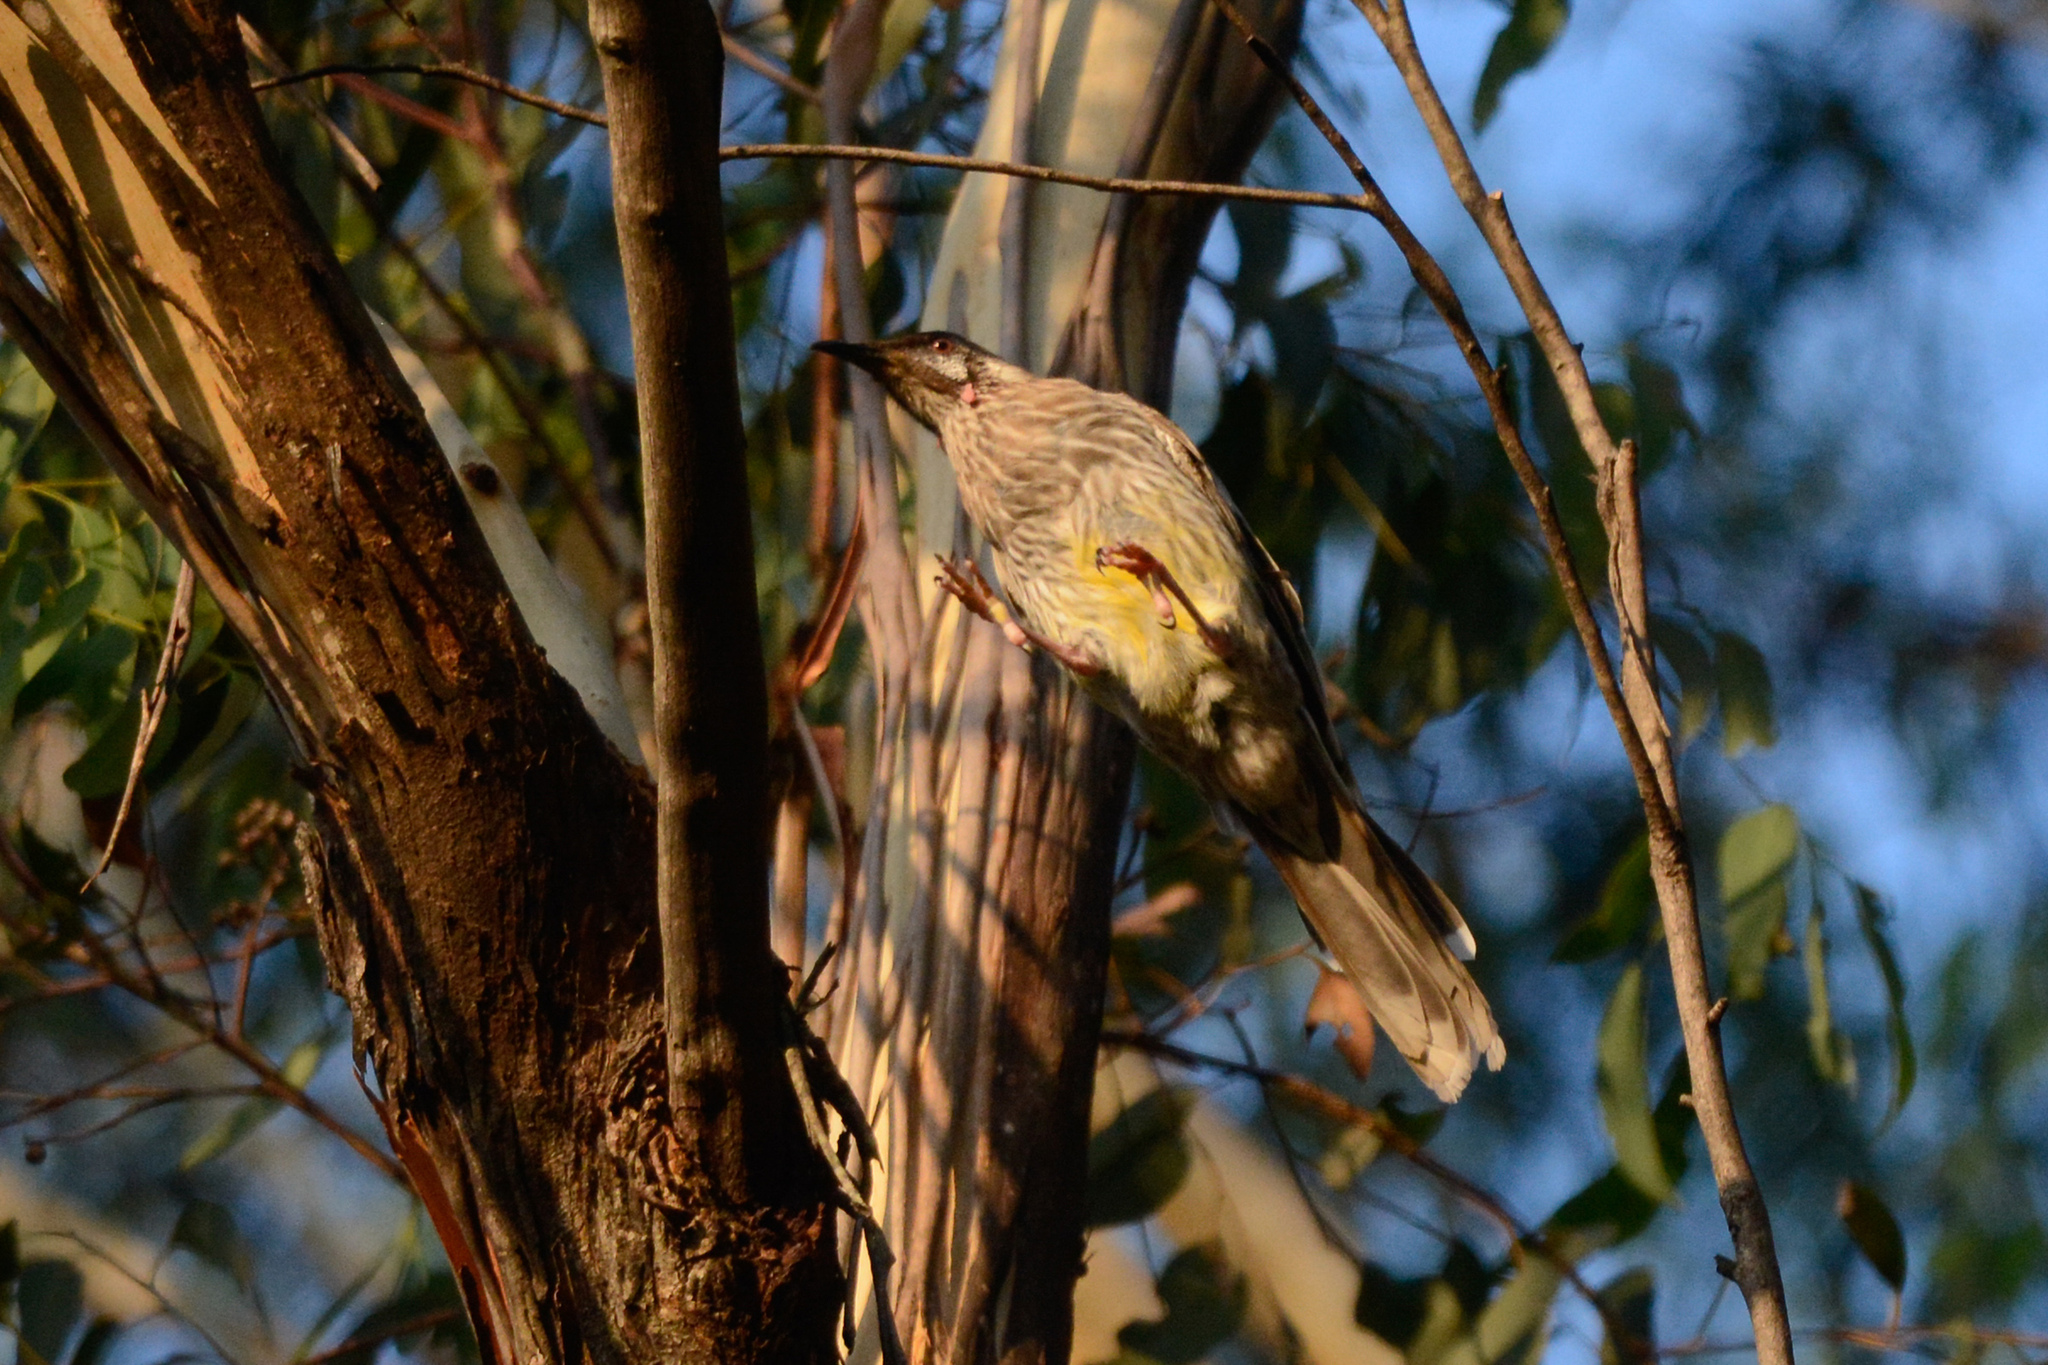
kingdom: Animalia
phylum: Chordata
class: Aves
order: Passeriformes
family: Meliphagidae
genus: Anthochaera
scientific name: Anthochaera carunculata
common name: Red wattlebird
